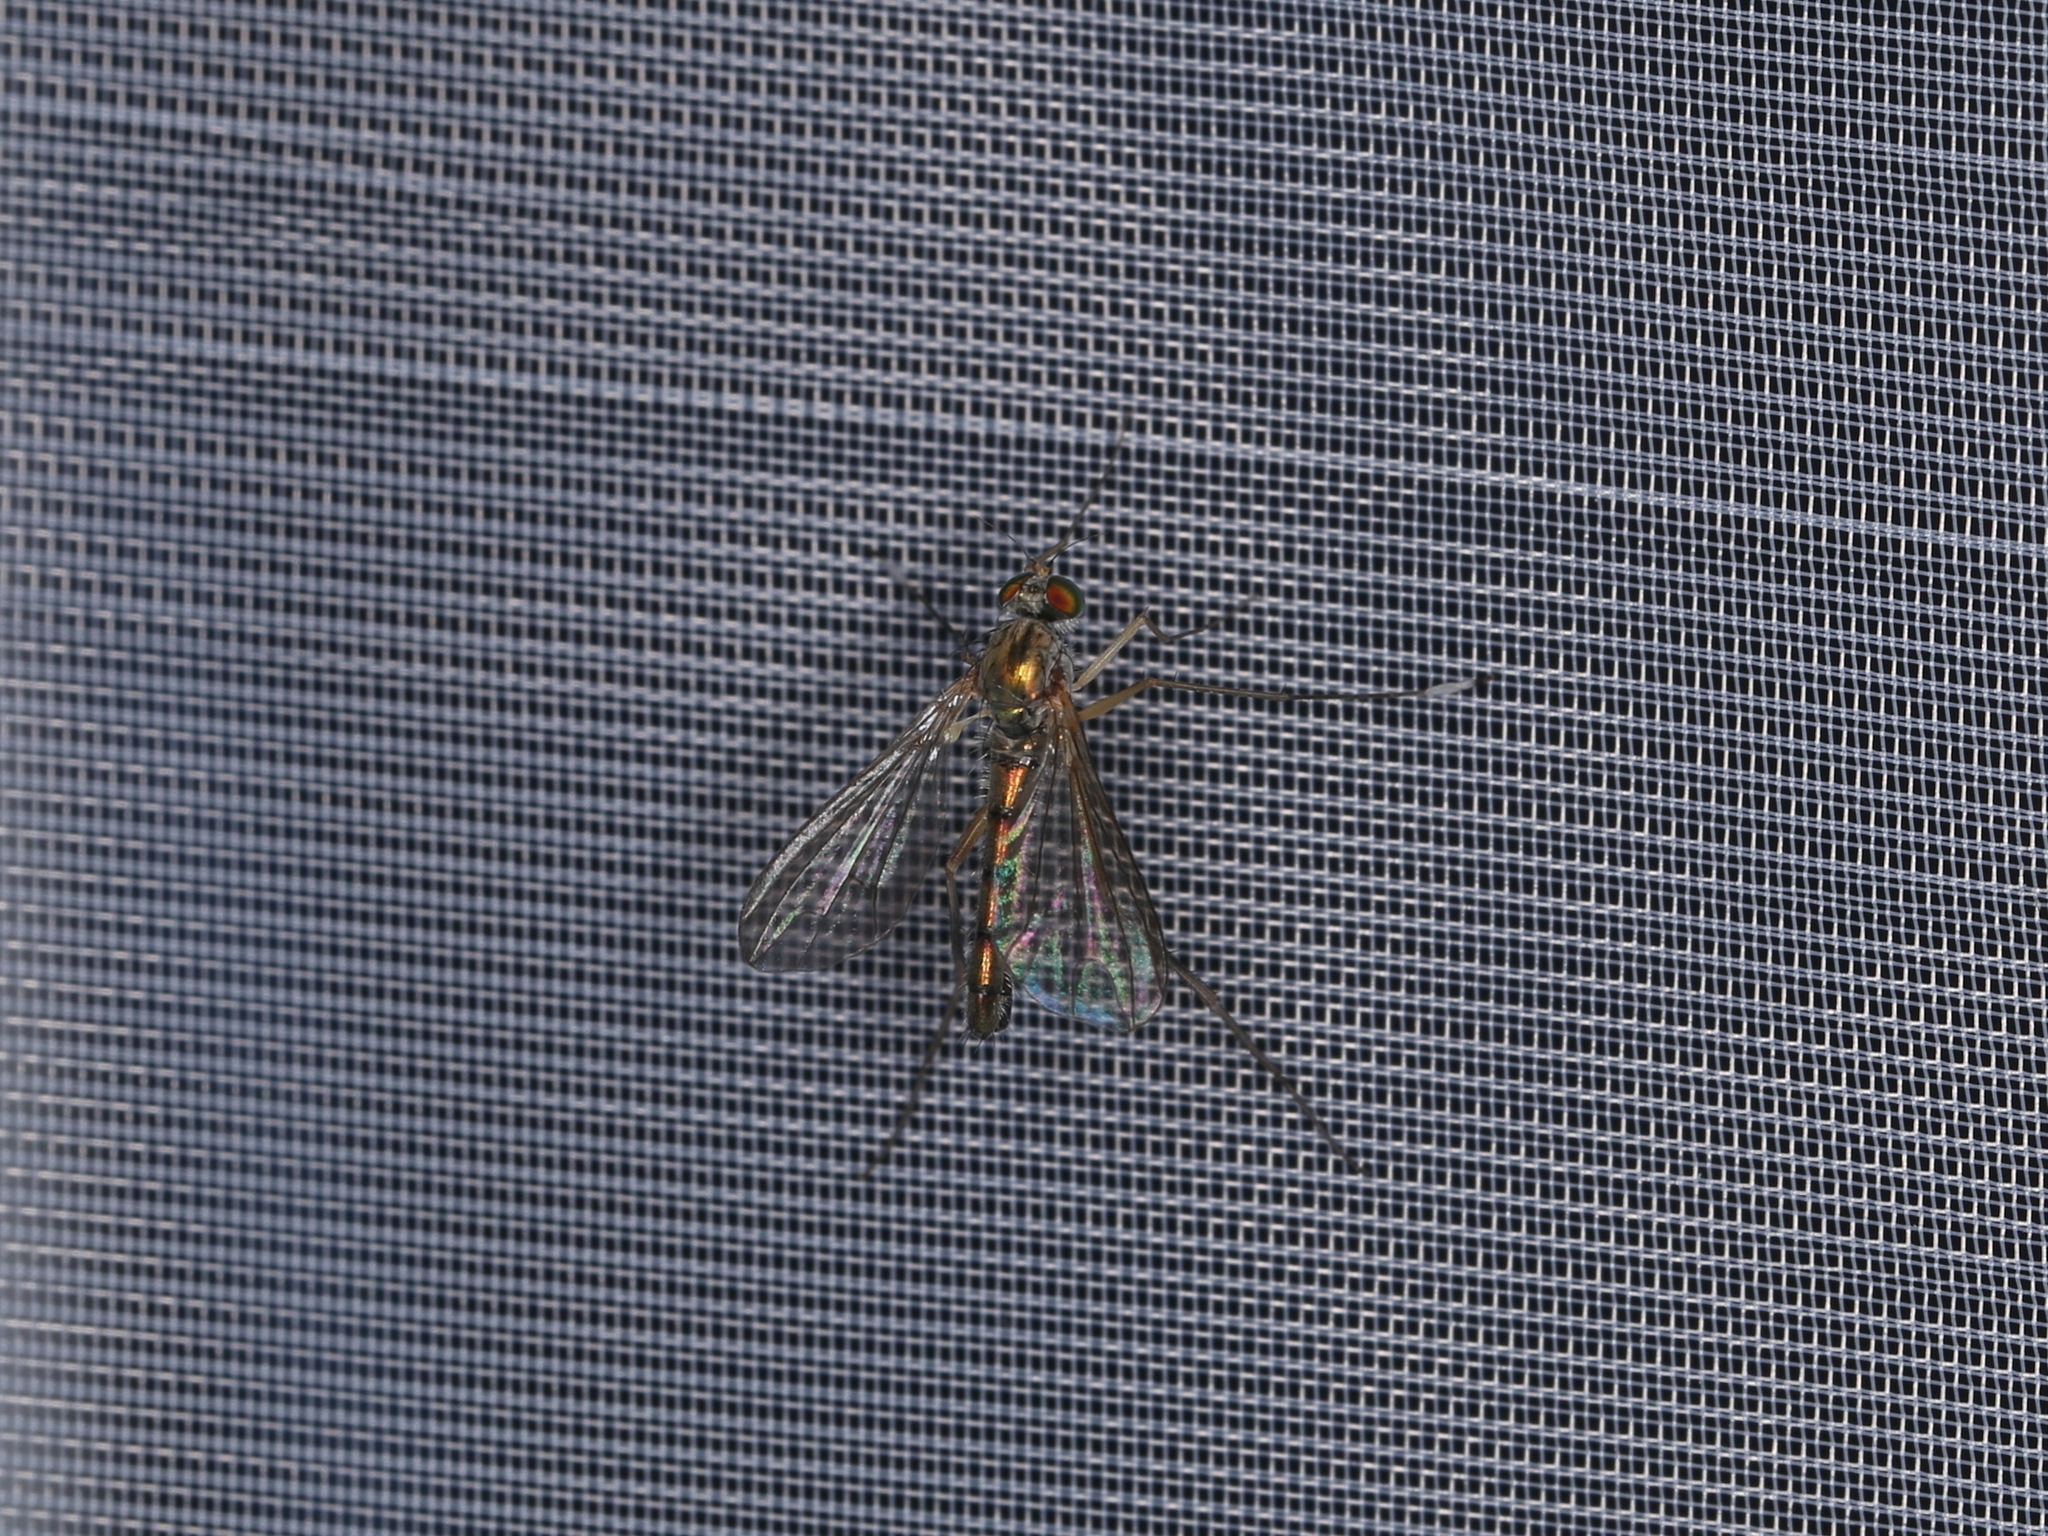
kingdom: Animalia
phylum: Arthropoda
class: Insecta
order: Diptera
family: Dolichopodidae
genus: Sciapus
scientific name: Sciapus platypterus
